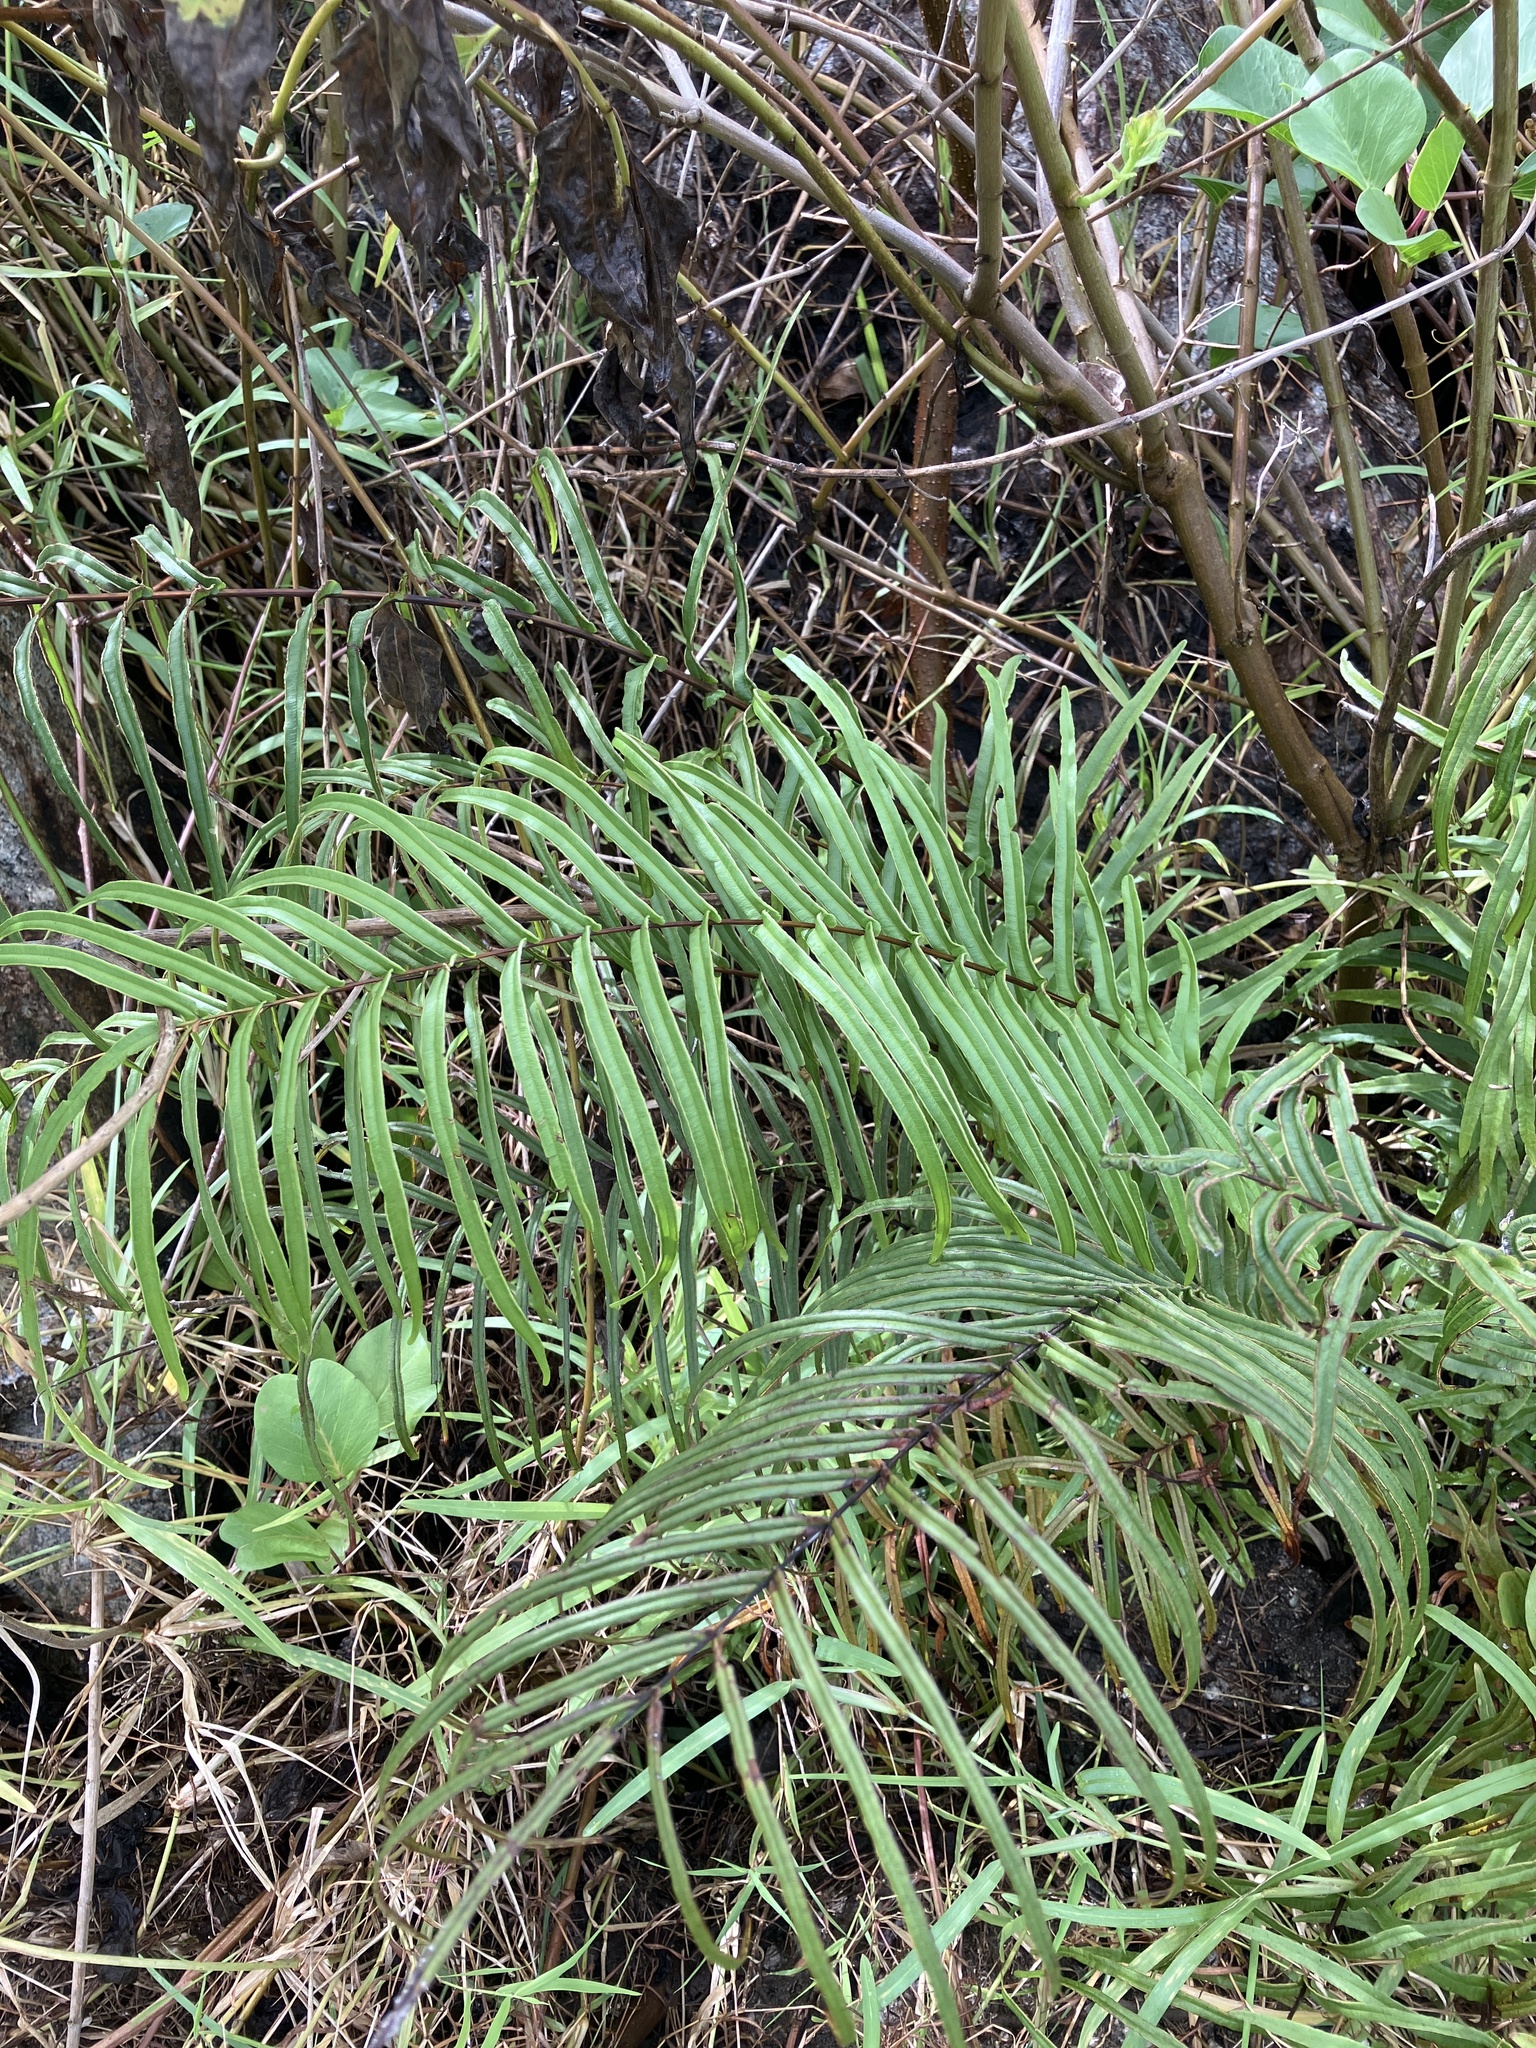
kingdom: Plantae
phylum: Tracheophyta
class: Polypodiopsida
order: Polypodiales
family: Pteridaceae
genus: Pteris
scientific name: Pteris vittata
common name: Ladder brake
